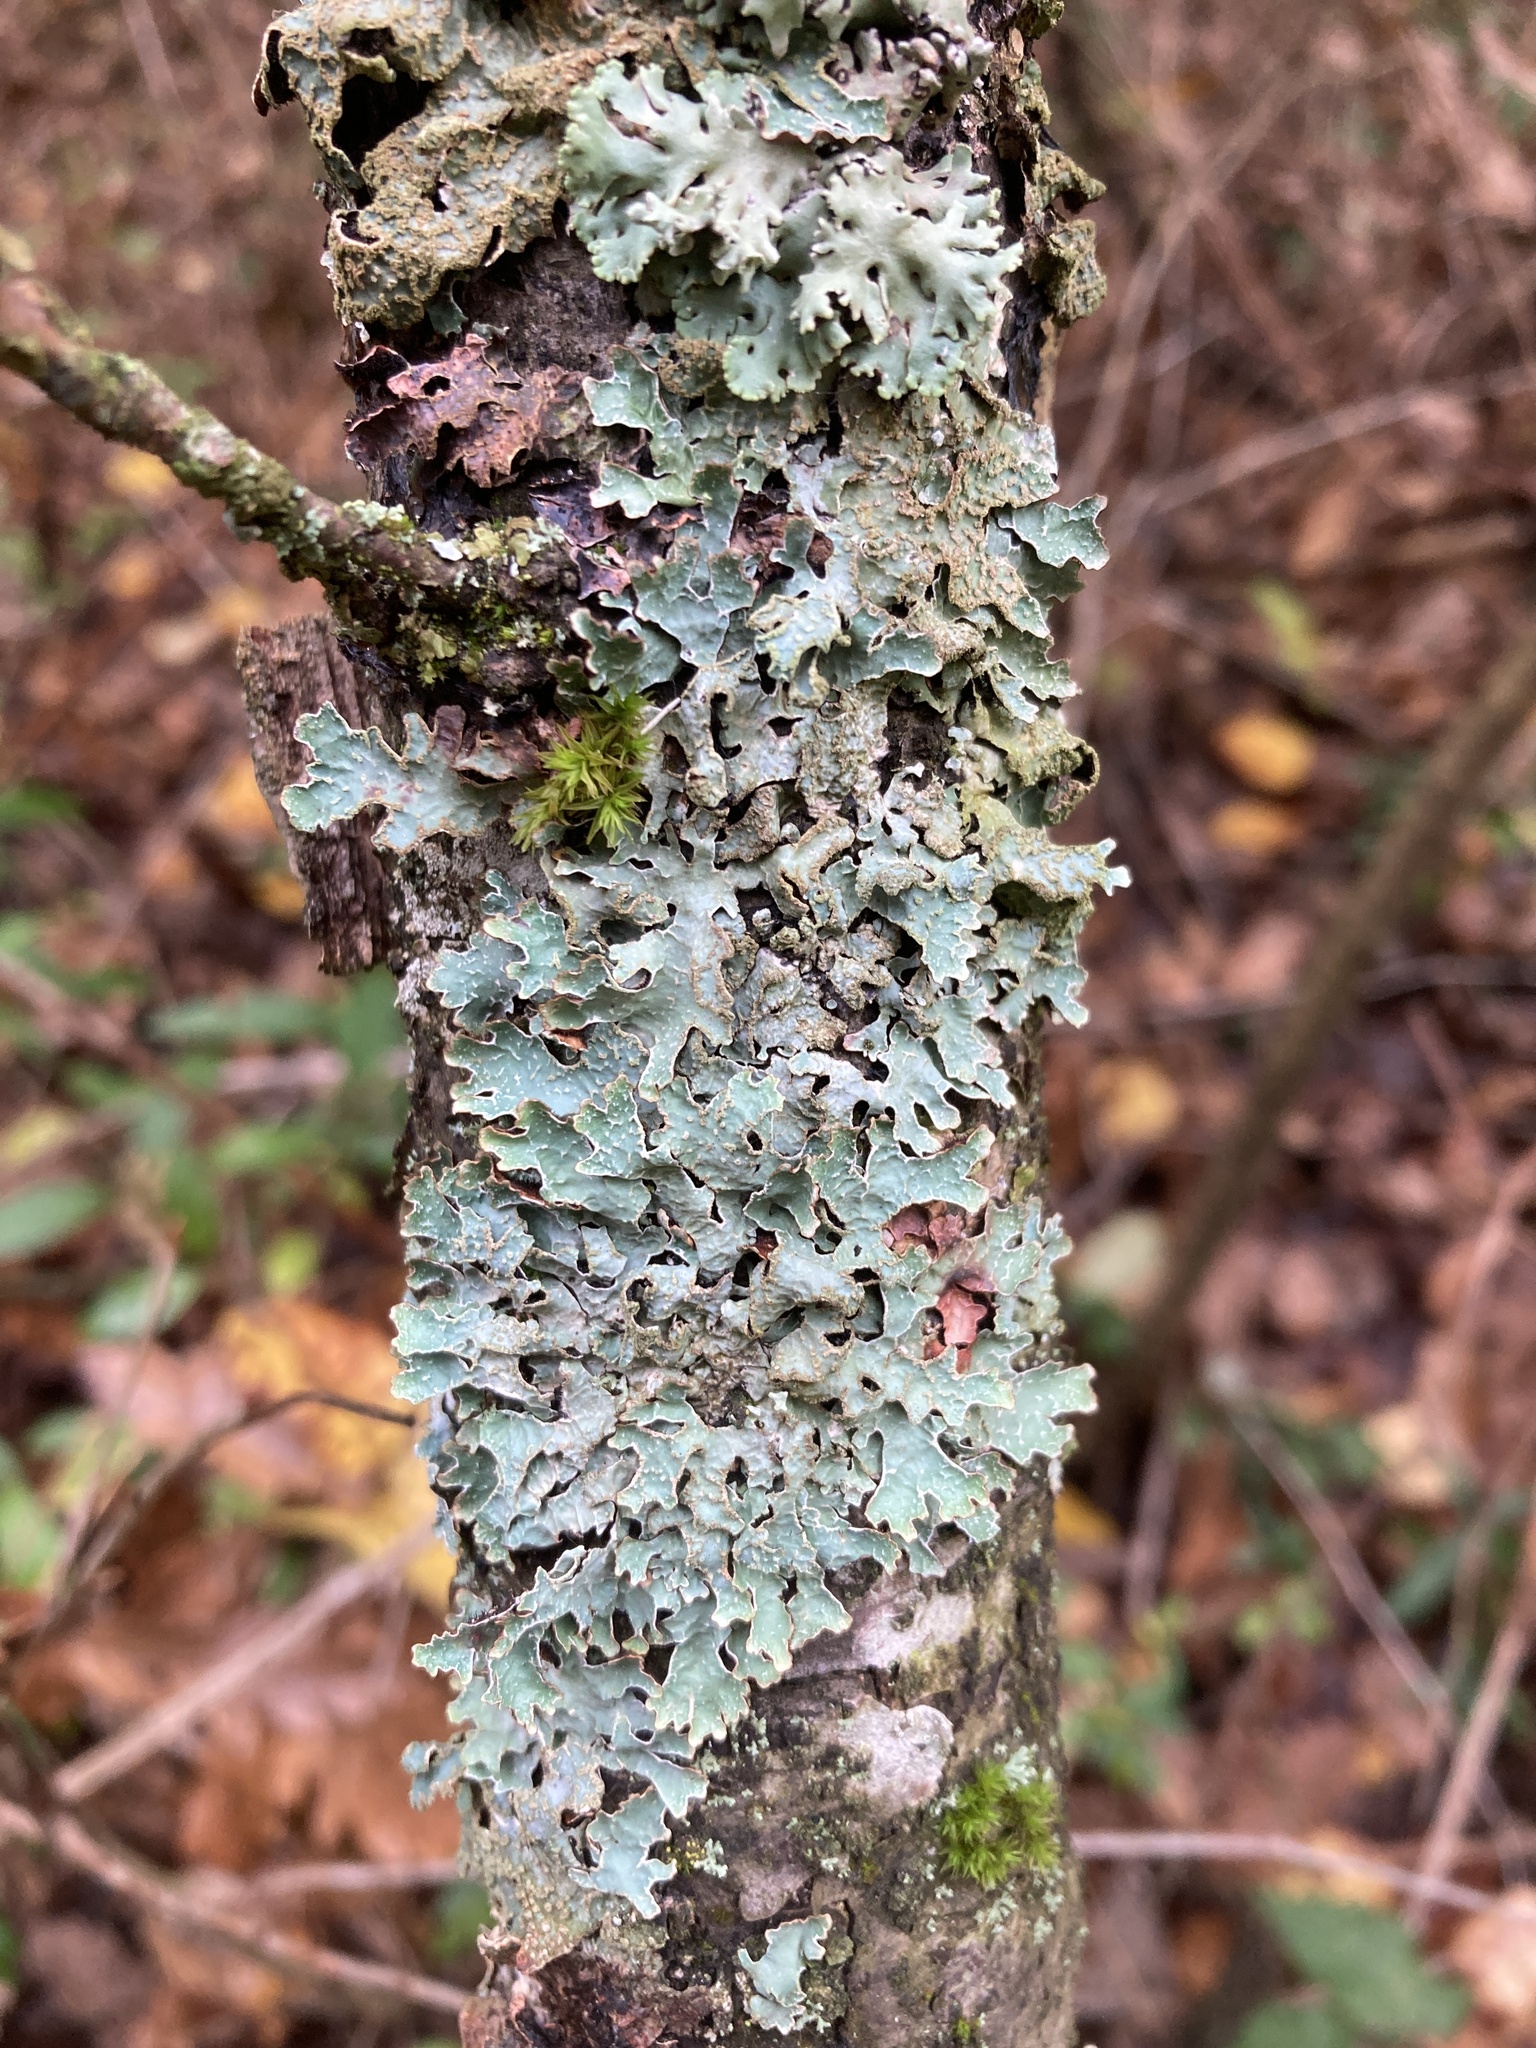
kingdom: Fungi
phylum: Ascomycota
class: Lecanoromycetes
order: Lecanorales
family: Parmeliaceae
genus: Parmelia
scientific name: Parmelia sulcata
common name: Netted shield lichen
